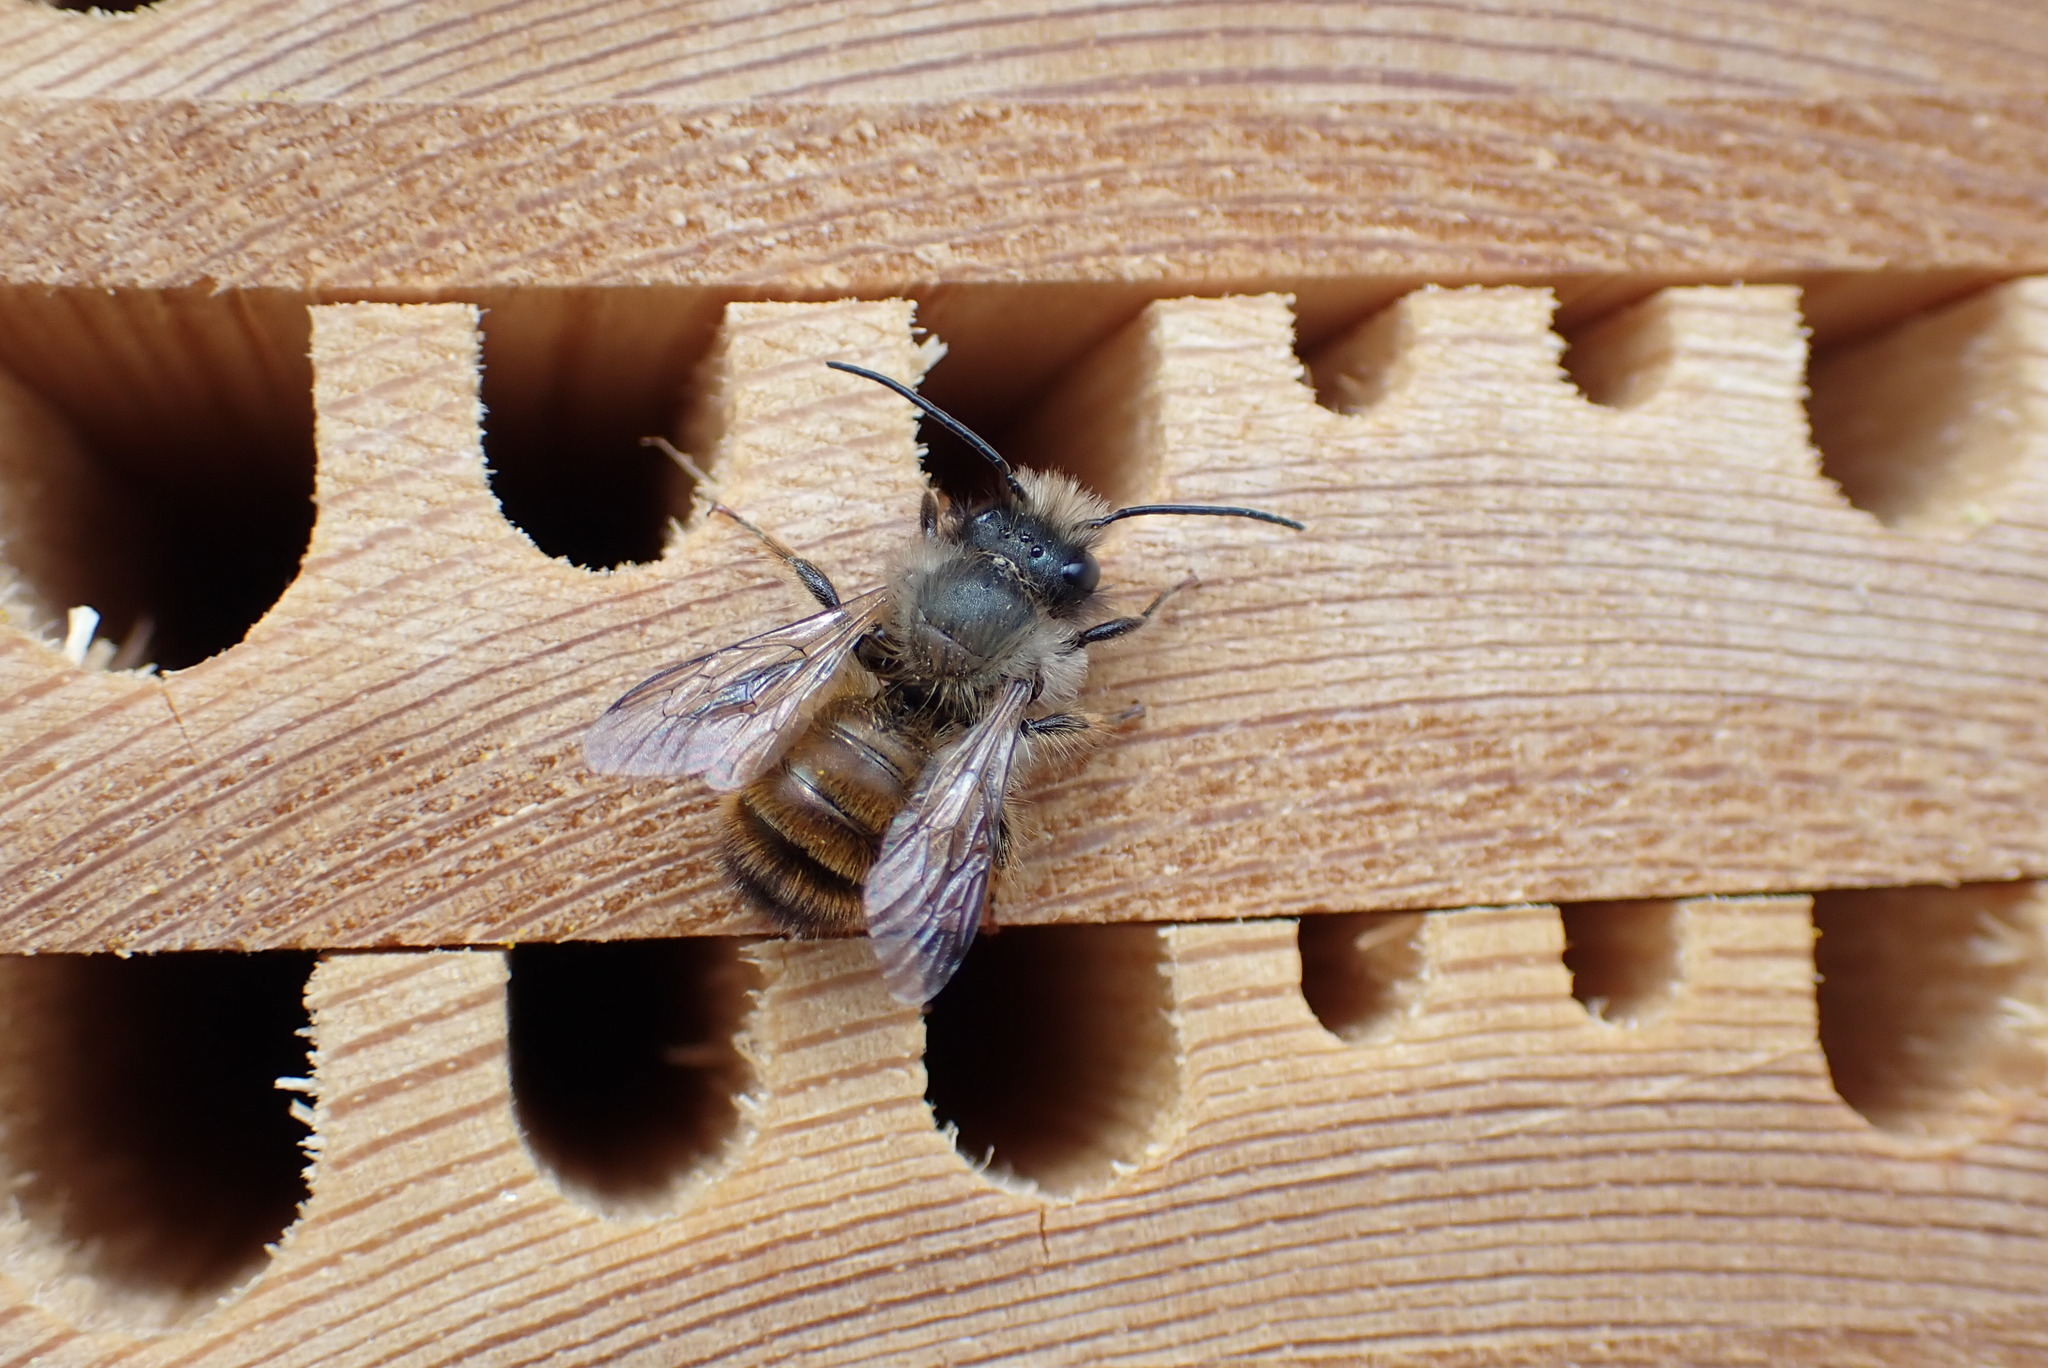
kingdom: Animalia
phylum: Arthropoda
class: Insecta
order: Hymenoptera
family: Megachilidae
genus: Osmia
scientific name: Osmia bicornis
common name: Red mason bee
